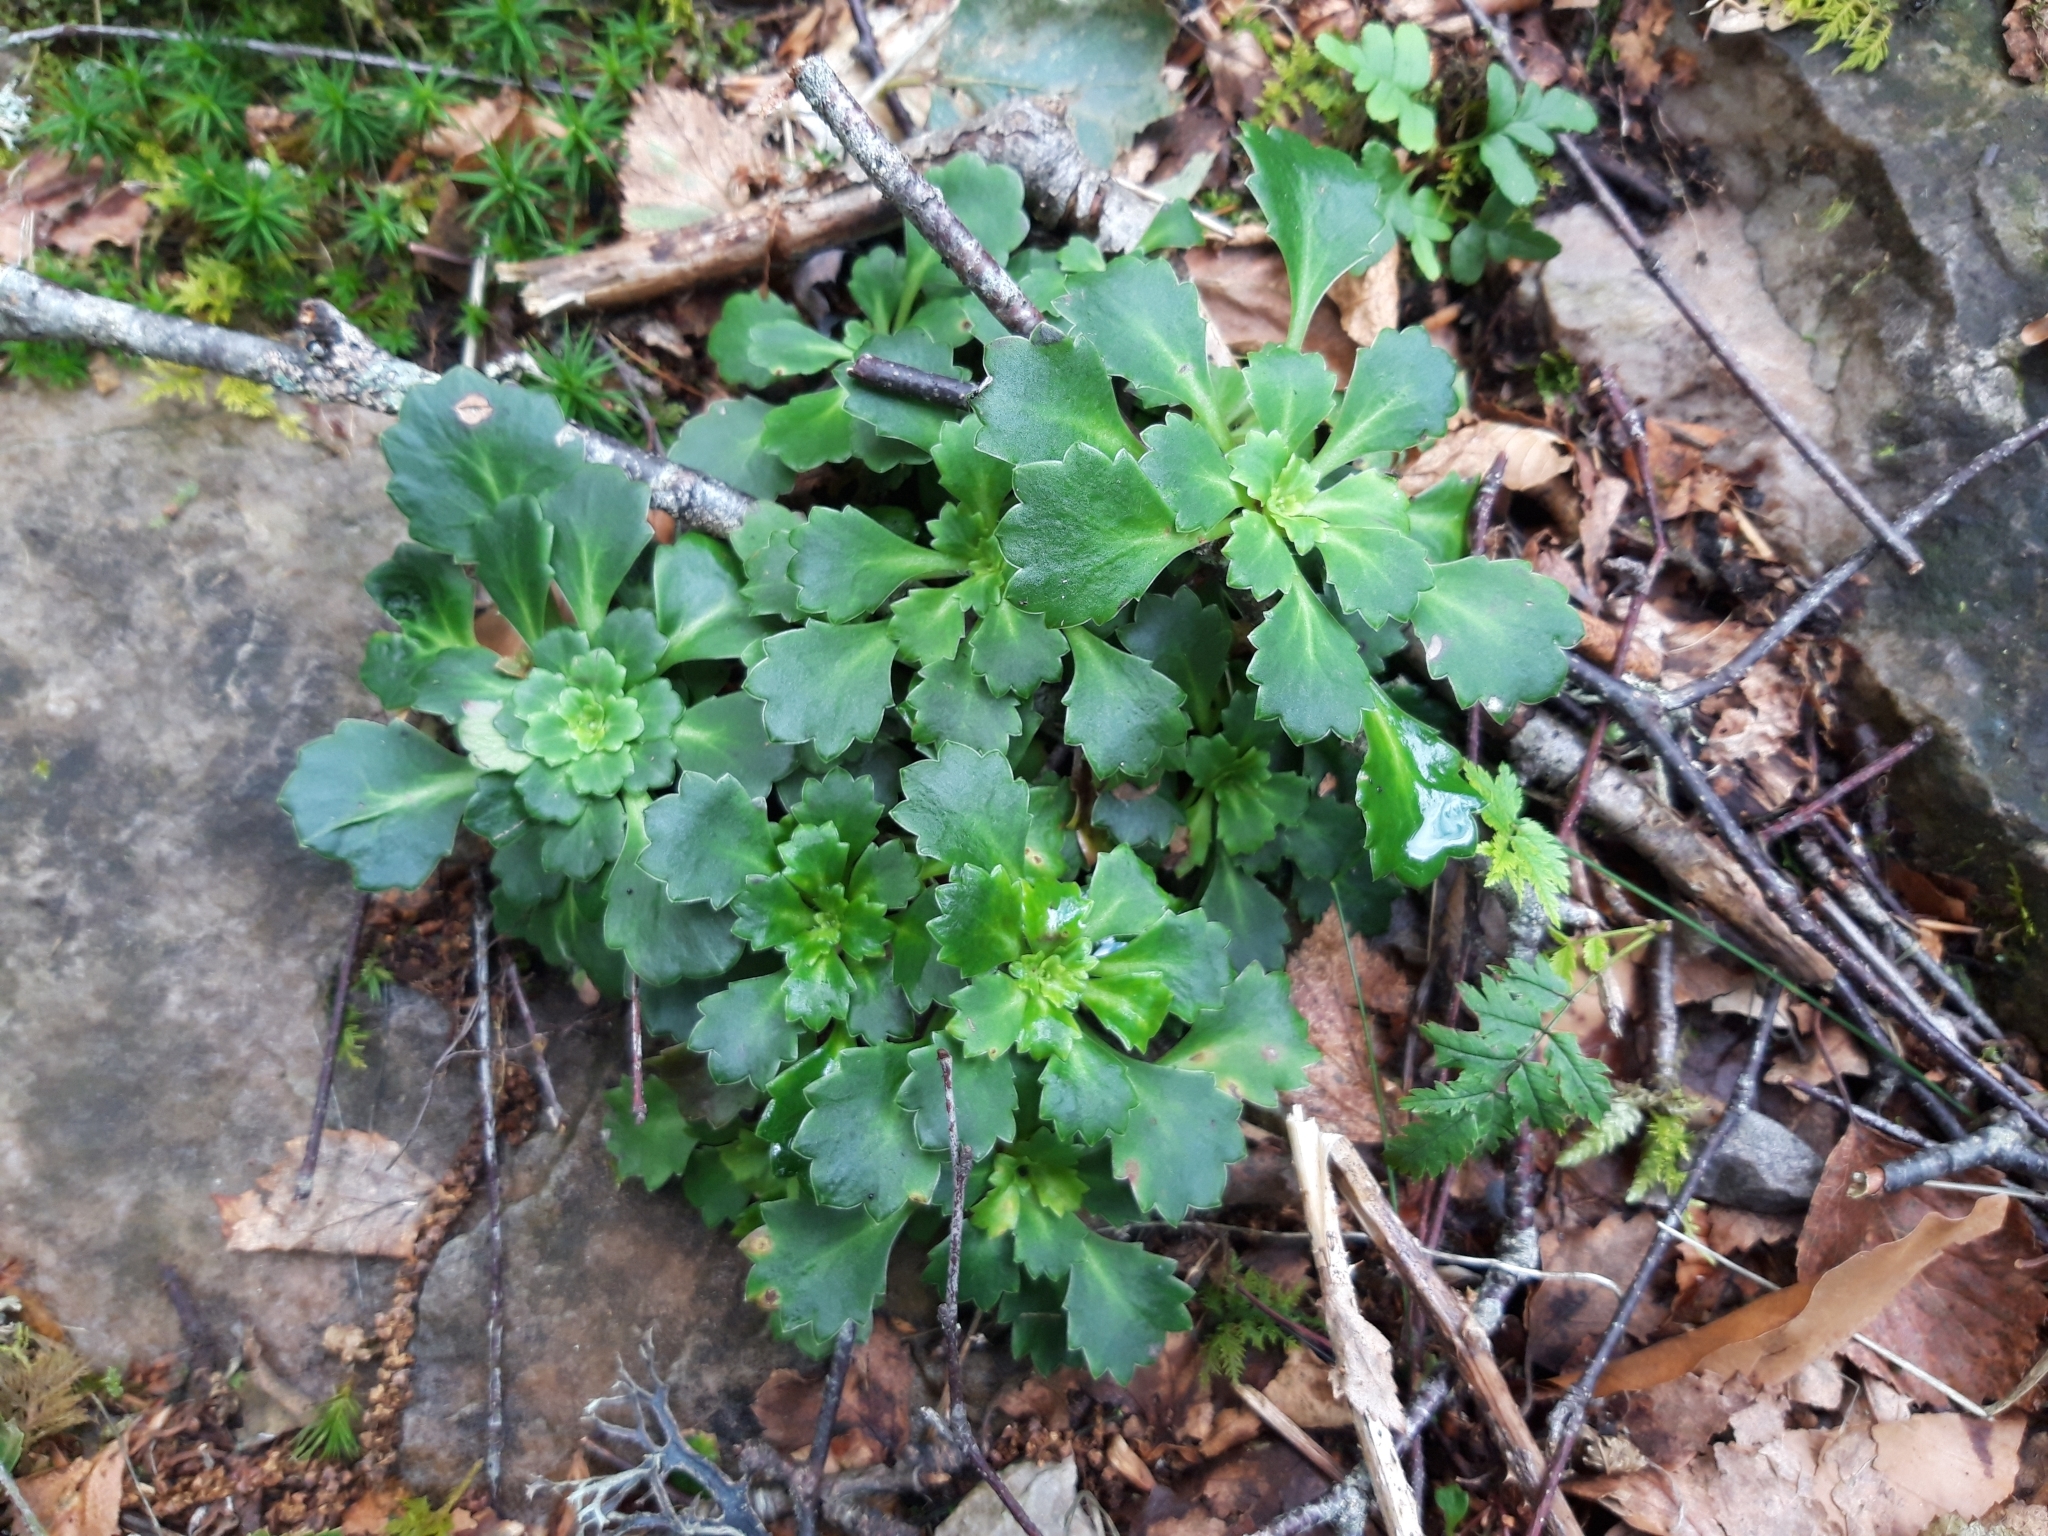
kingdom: Plantae
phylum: Tracheophyta
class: Magnoliopsida
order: Saxifragales
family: Saxifragaceae
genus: Saxifraga
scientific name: Saxifraga spathularis
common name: St patrick's-cabbage
